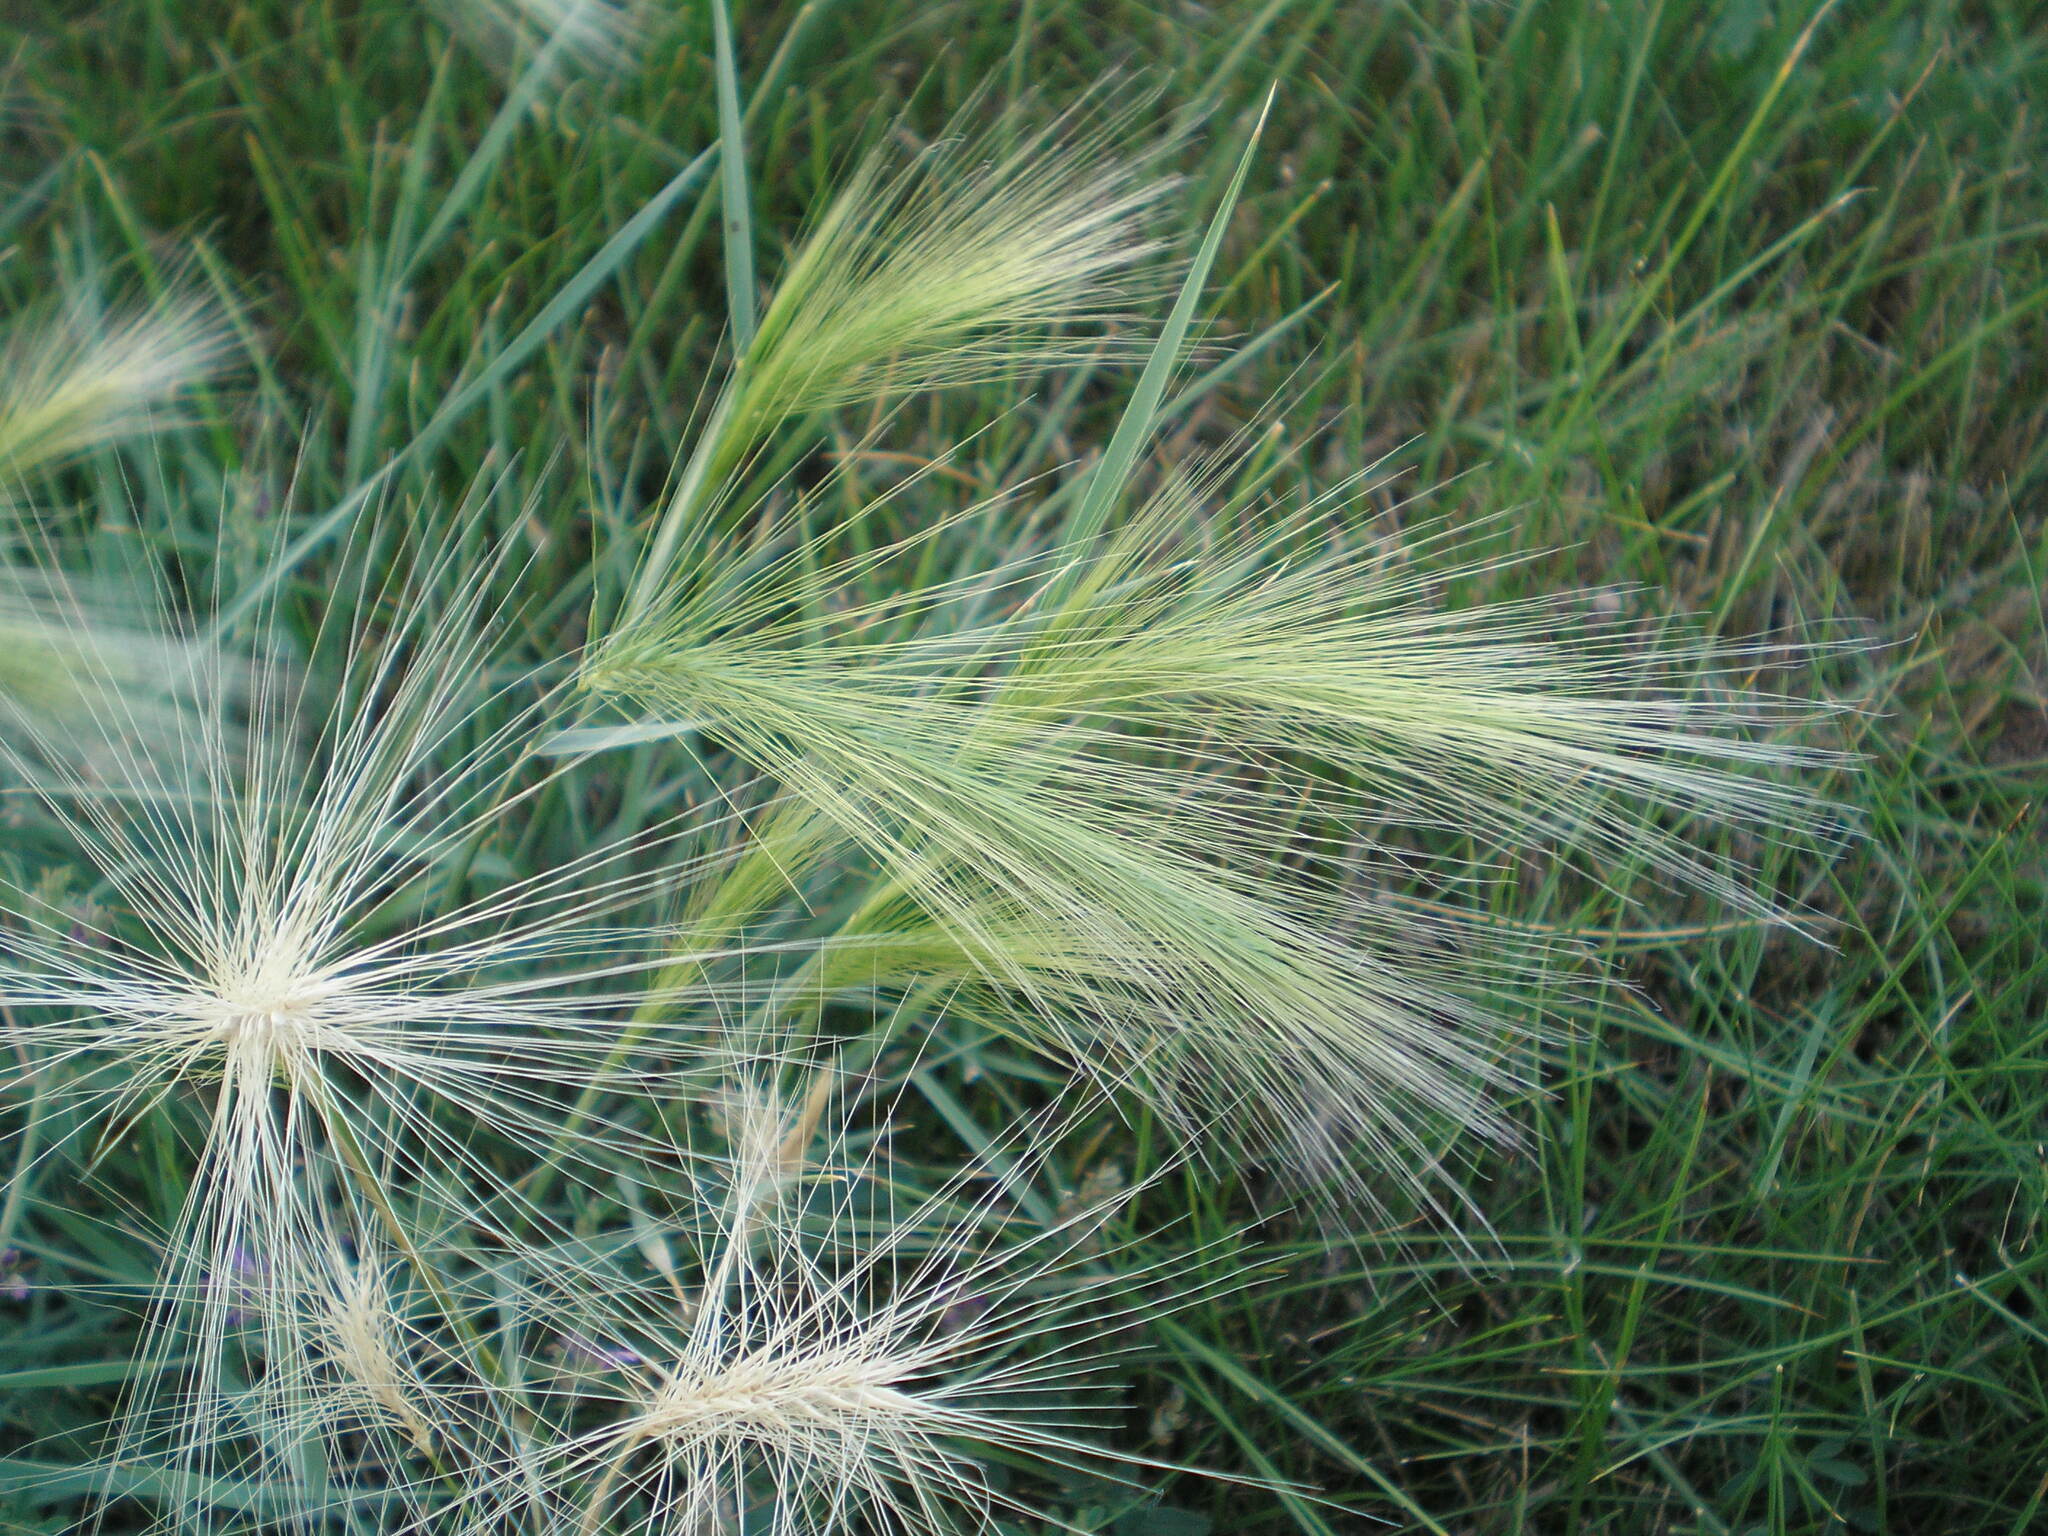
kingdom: Plantae
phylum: Tracheophyta
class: Liliopsida
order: Poales
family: Poaceae
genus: Hordeum
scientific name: Hordeum jubatum
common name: Foxtail barley
